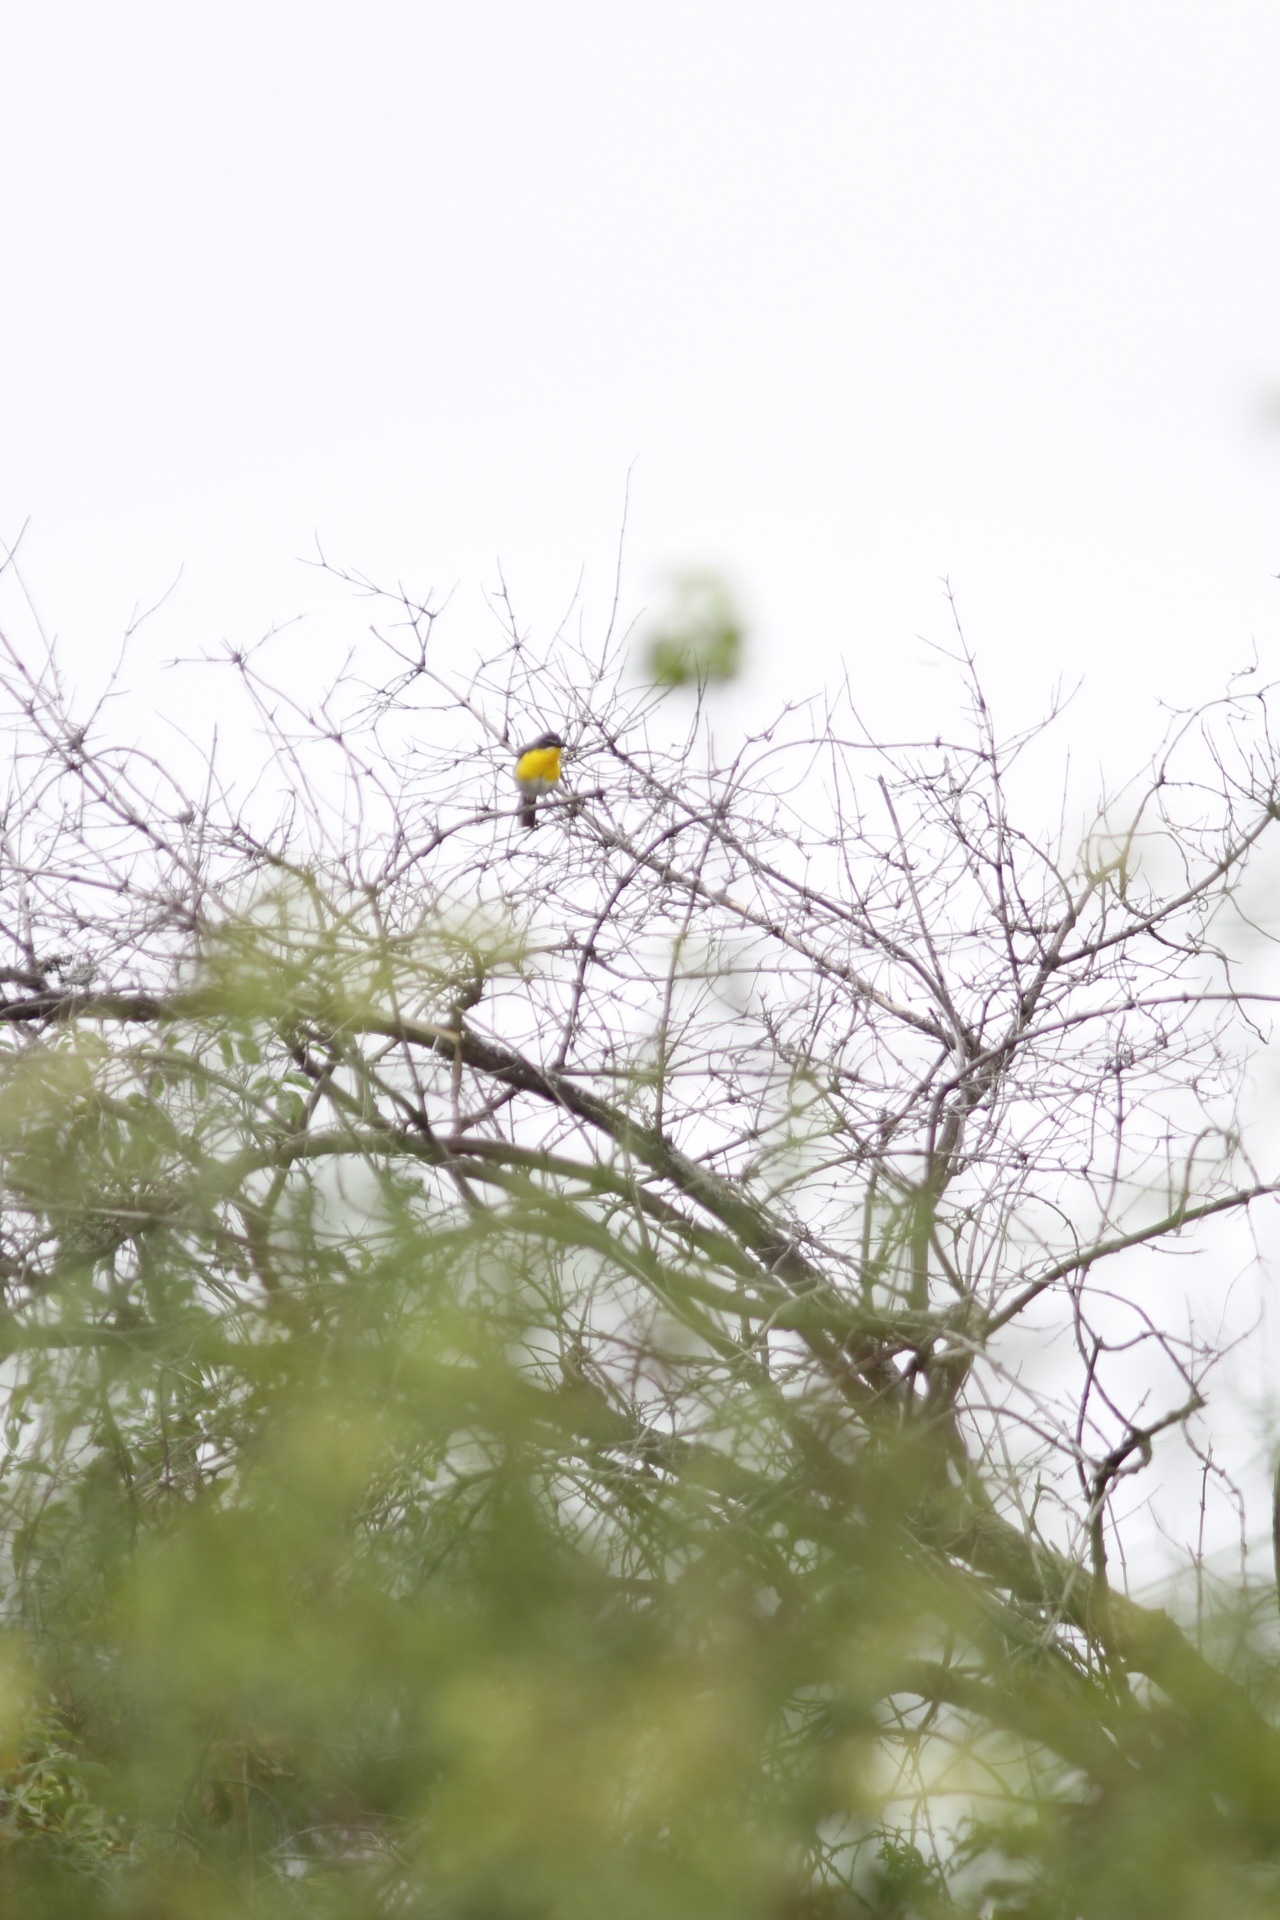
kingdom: Animalia
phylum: Chordata
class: Aves
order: Passeriformes
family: Parulidae
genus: Icteria
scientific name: Icteria virens
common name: Yellow-breasted chat
